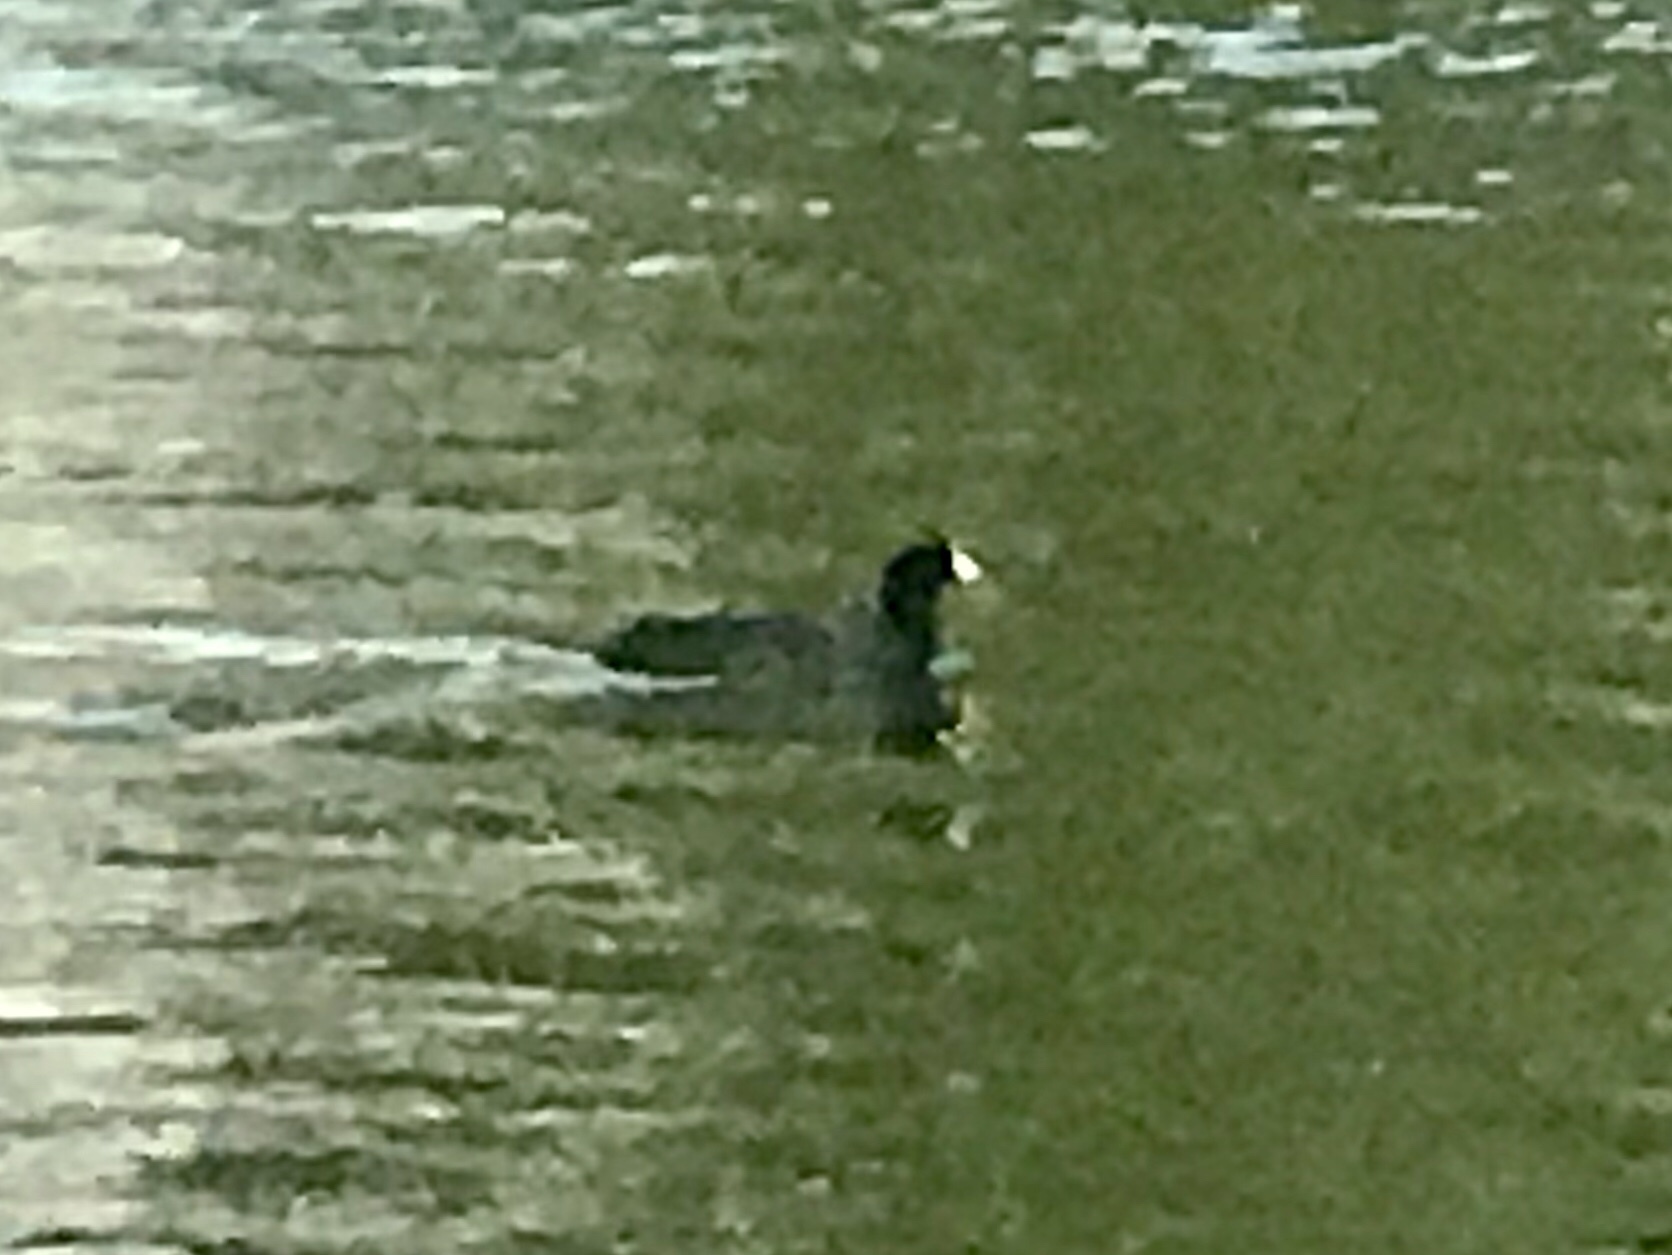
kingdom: Animalia
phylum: Chordata
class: Aves
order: Gruiformes
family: Rallidae
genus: Fulica
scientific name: Fulica americana
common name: American coot
